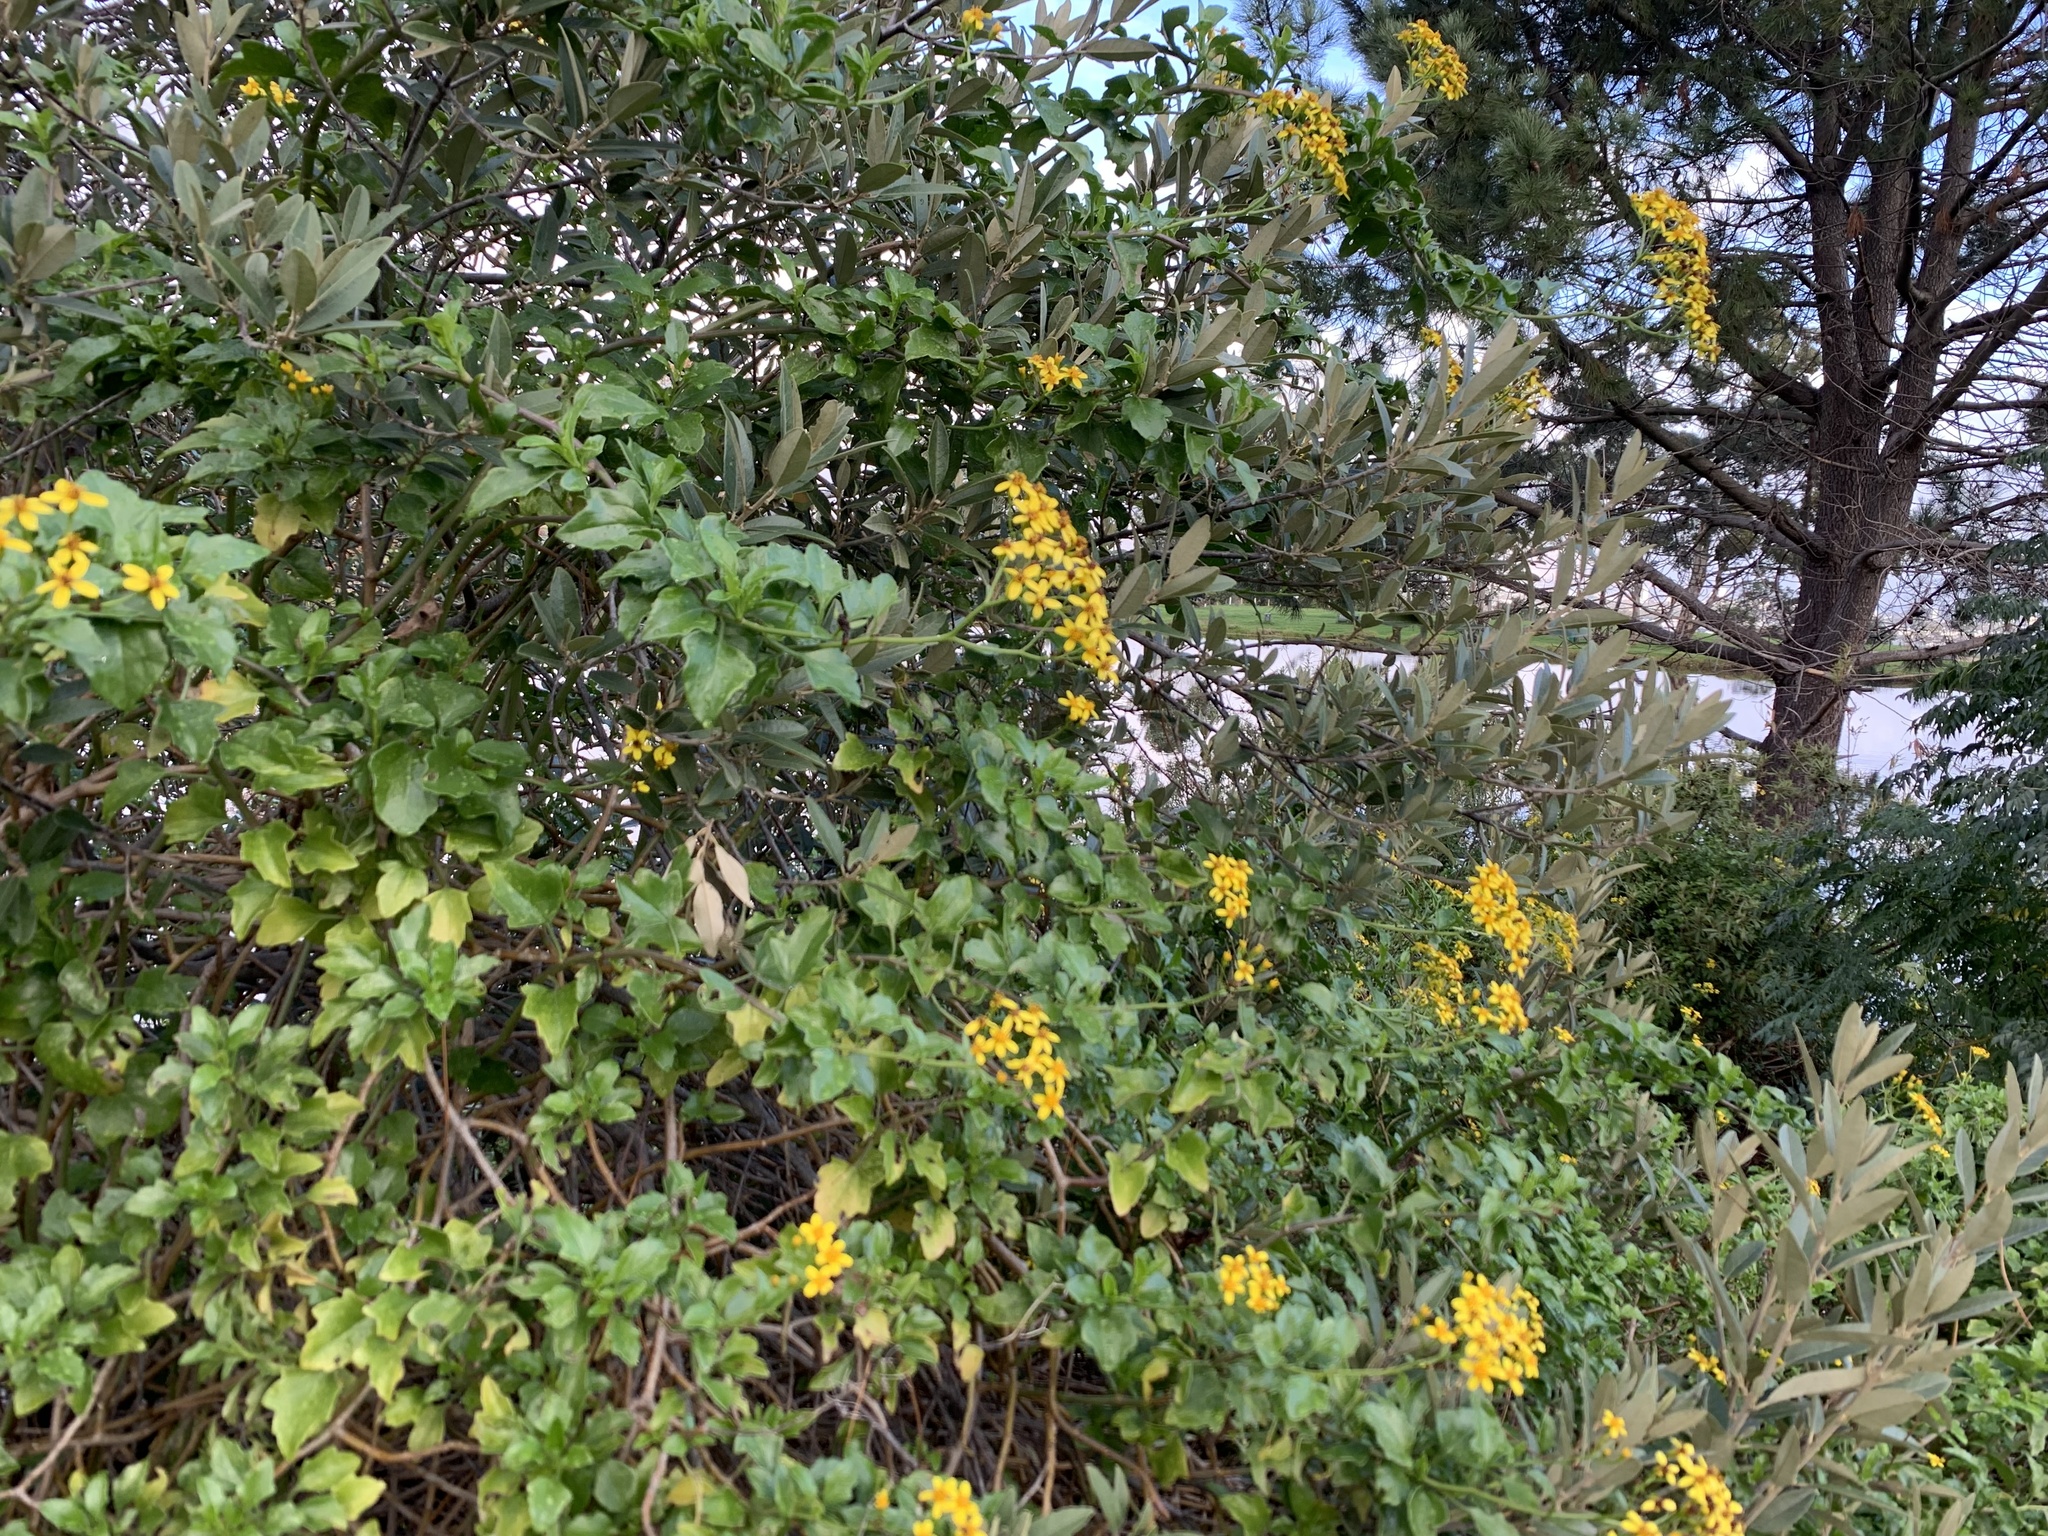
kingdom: Plantae
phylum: Tracheophyta
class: Magnoliopsida
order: Asterales
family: Asteraceae
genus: Senecio
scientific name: Senecio angulatus
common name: Climbing groundsel
